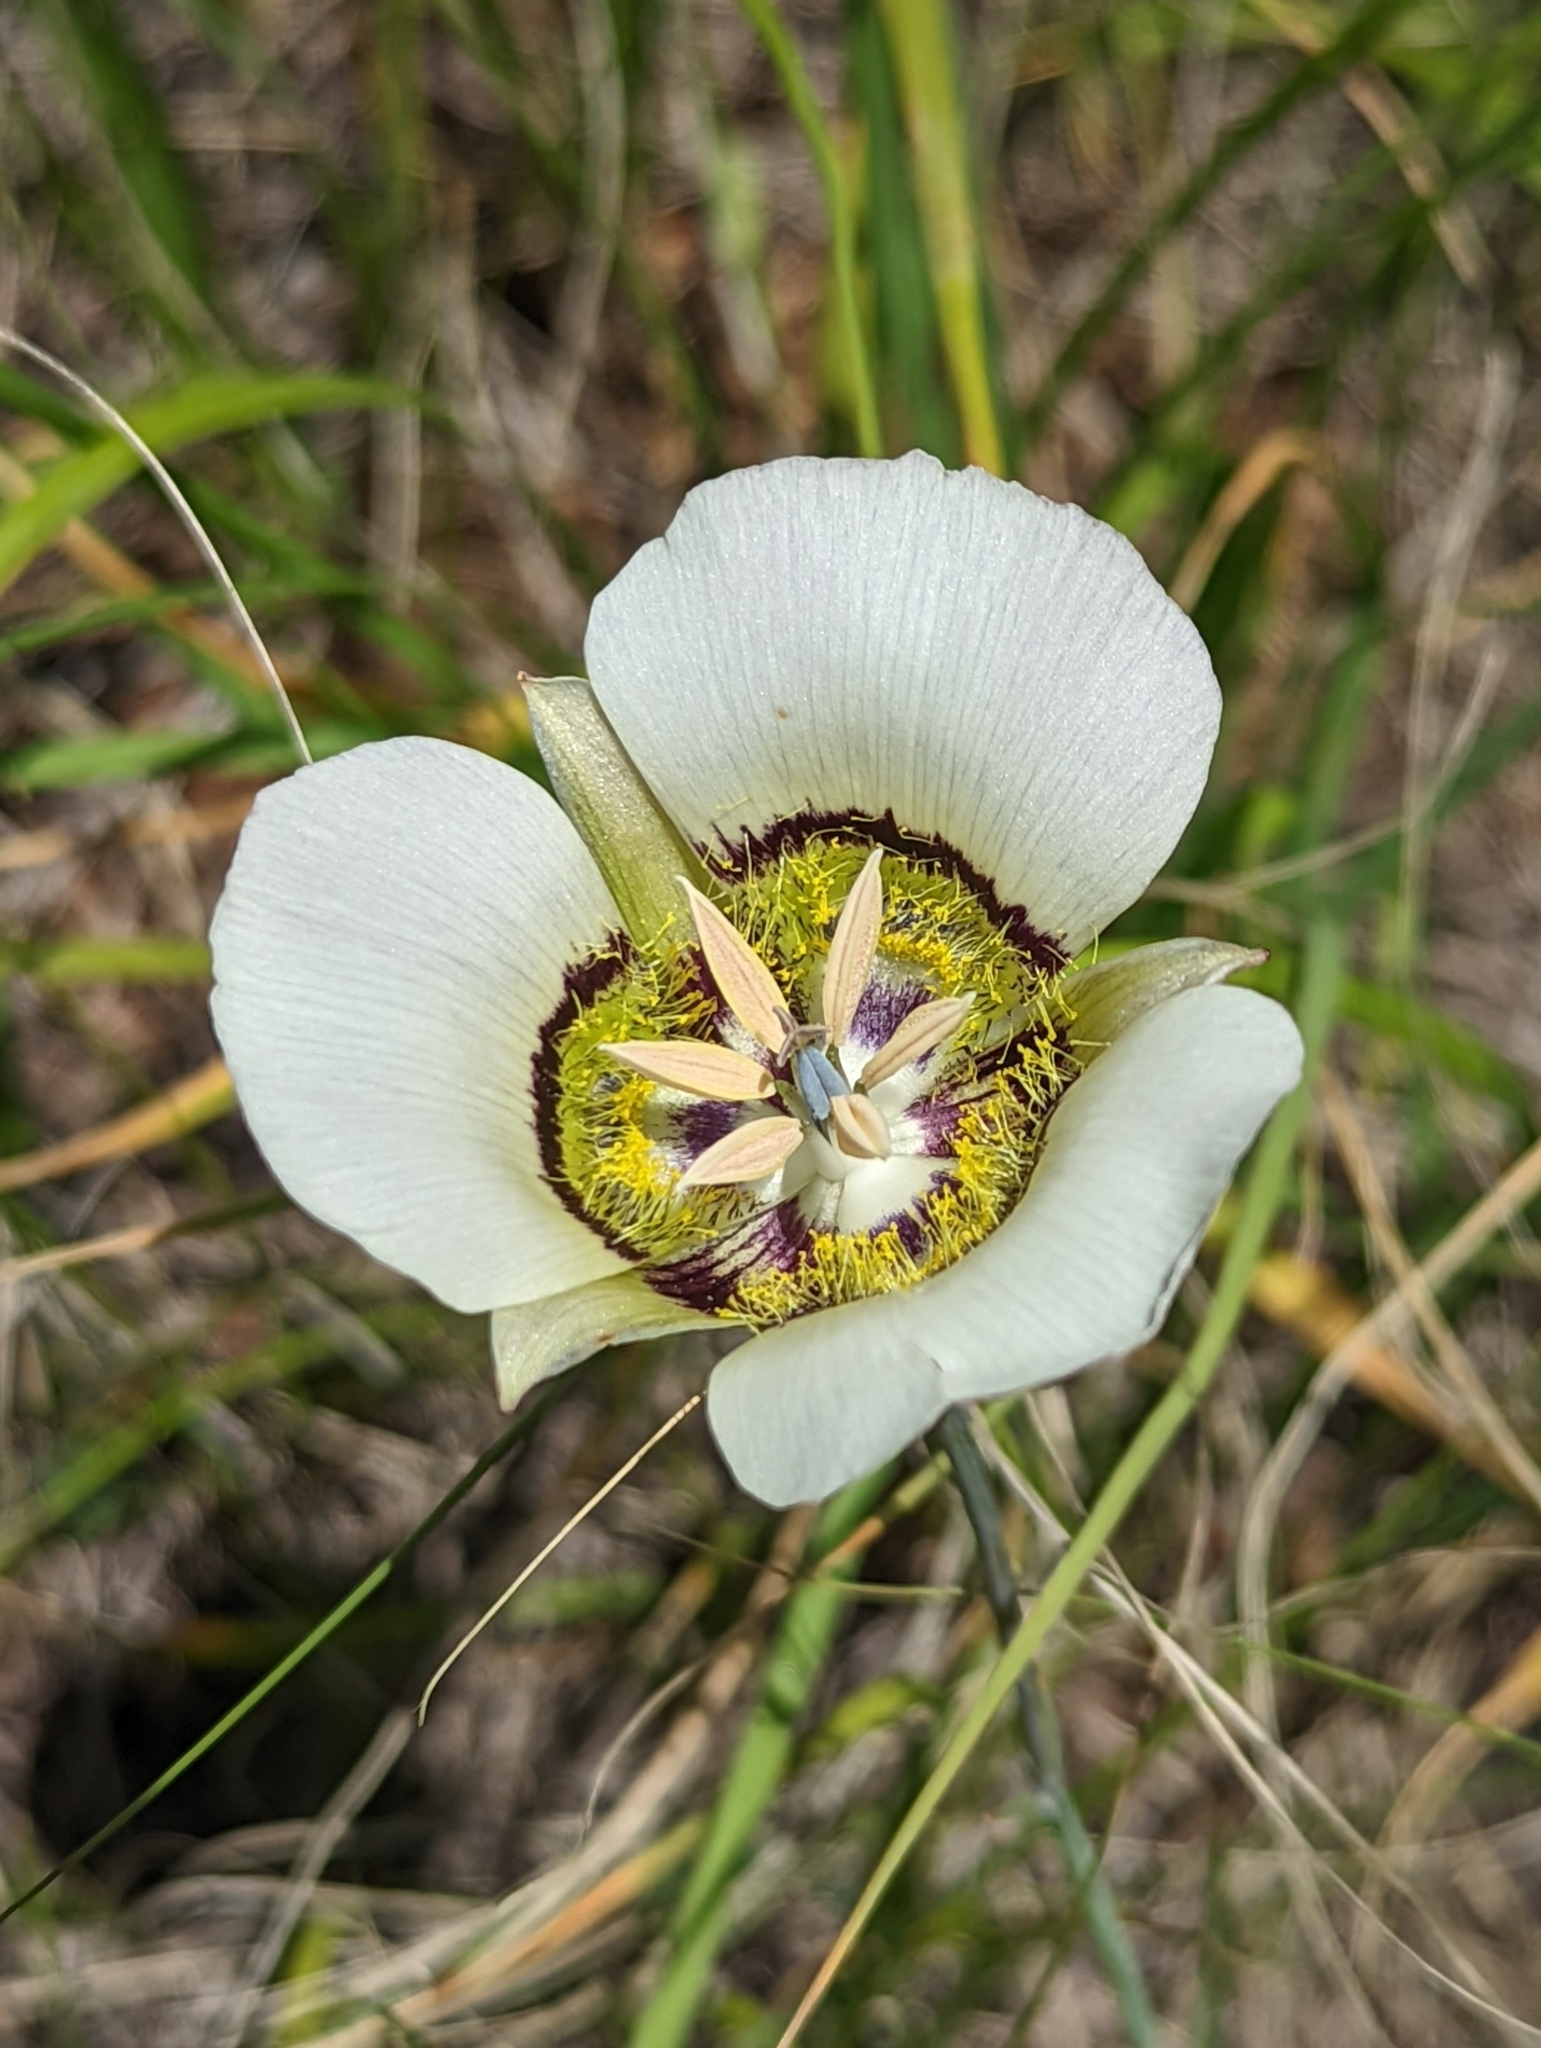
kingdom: Plantae
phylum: Tracheophyta
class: Liliopsida
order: Liliales
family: Liliaceae
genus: Calochortus
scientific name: Calochortus gunnisonii
